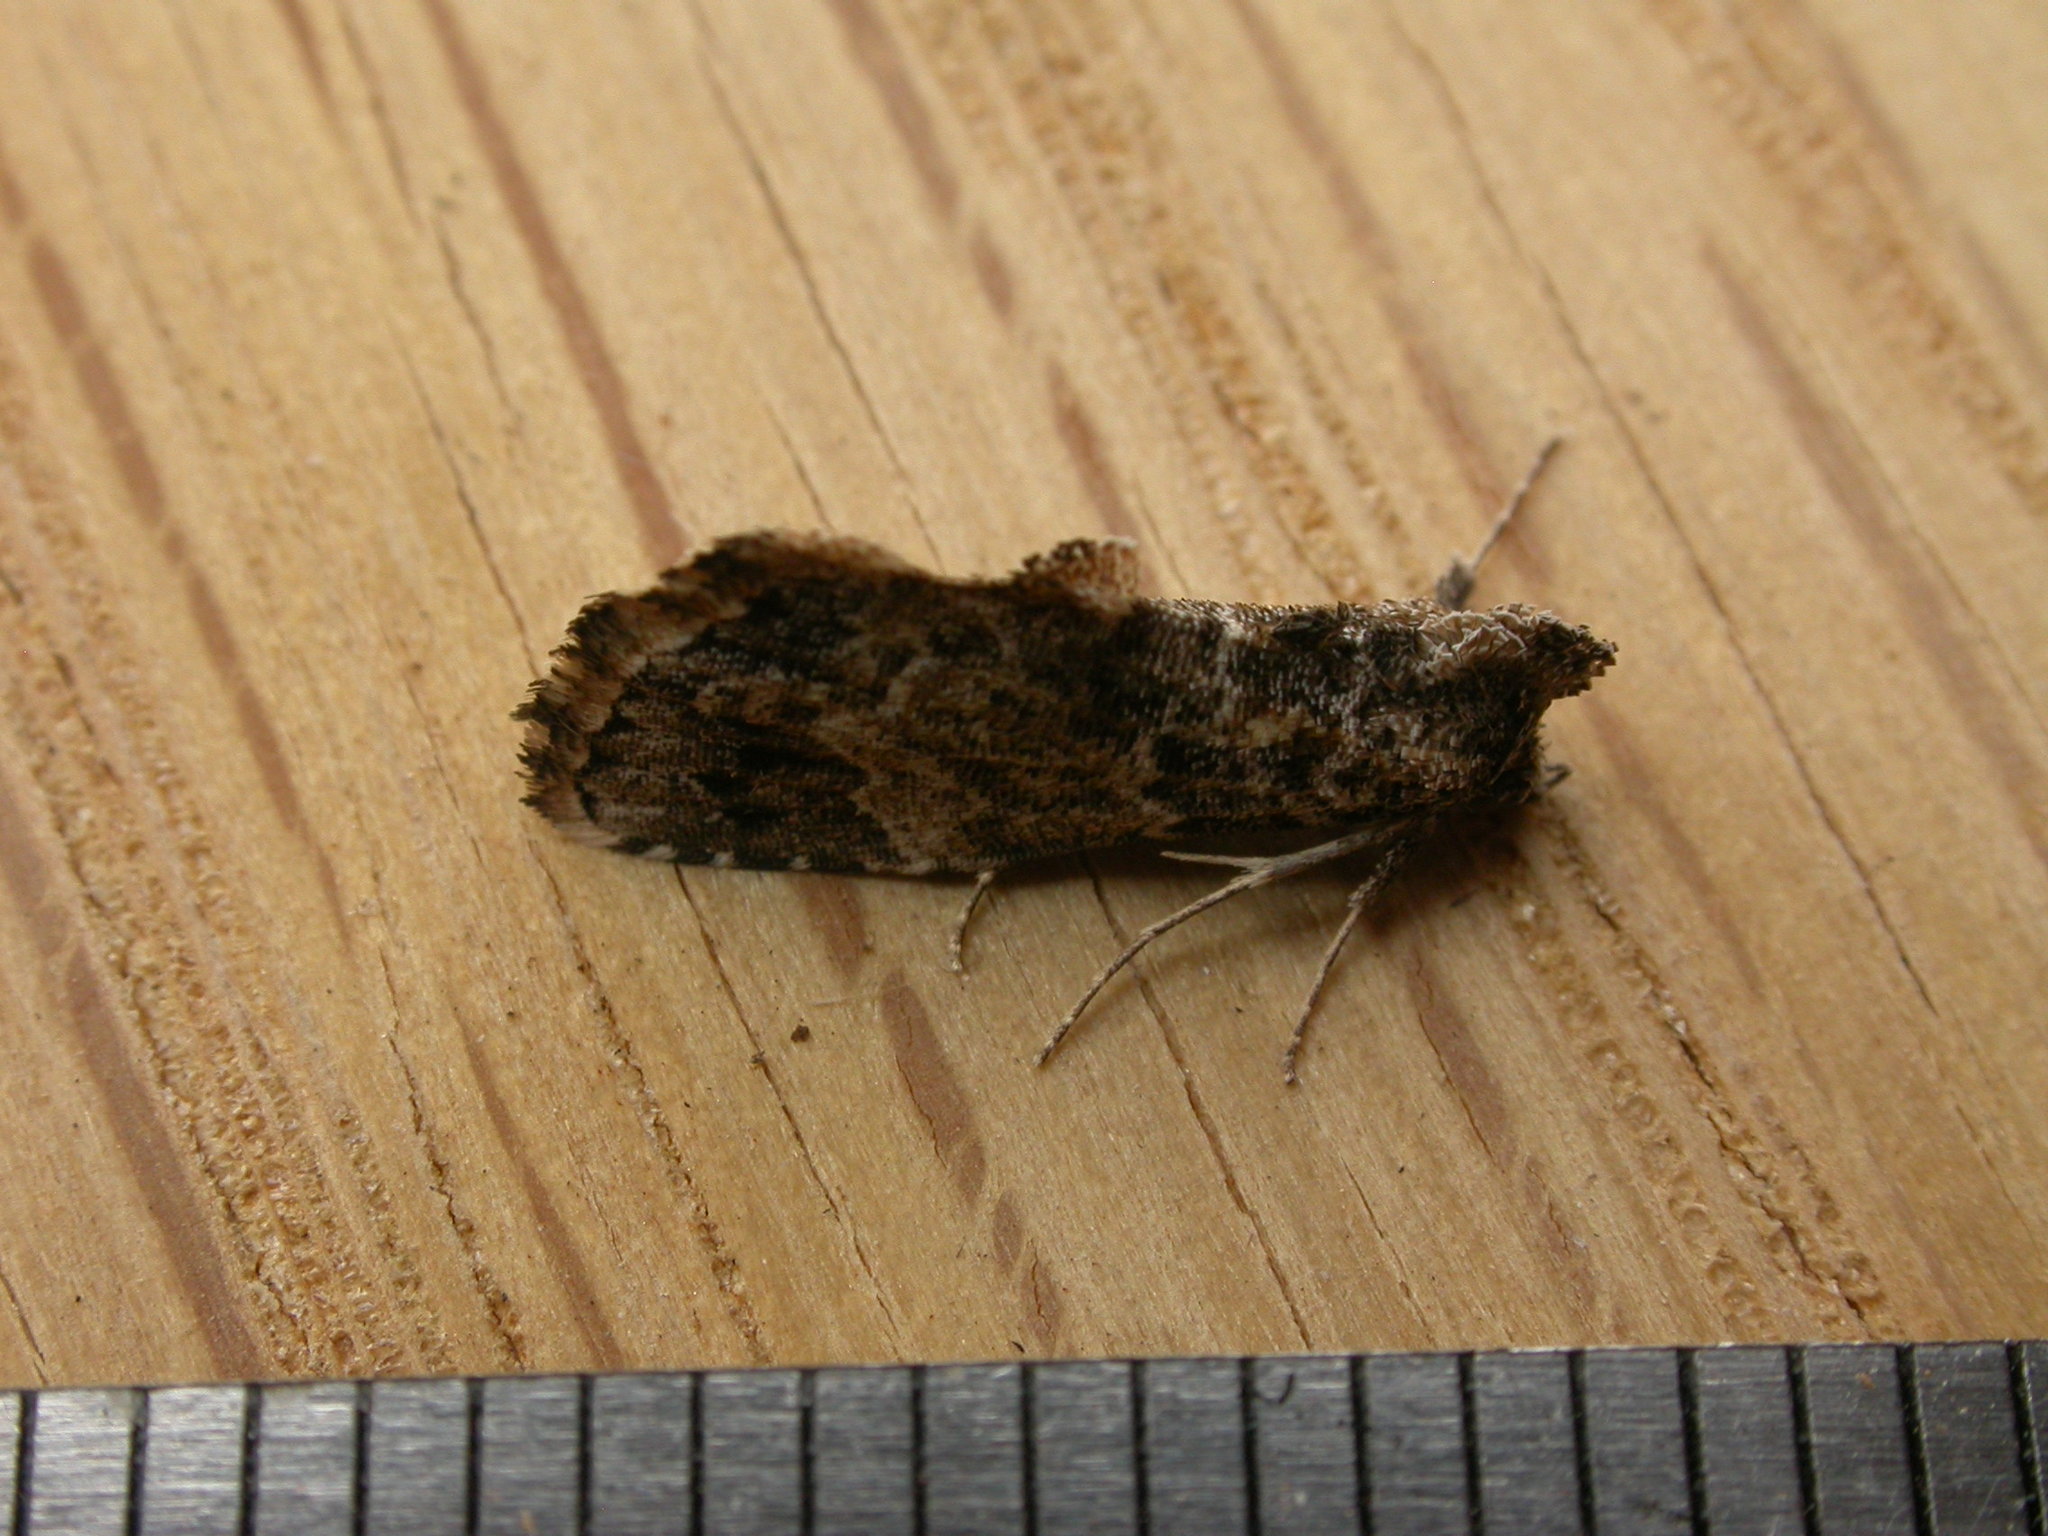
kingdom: Animalia
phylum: Arthropoda
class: Insecta
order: Lepidoptera
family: Erebidae
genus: Arrade
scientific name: Arrade destituta
